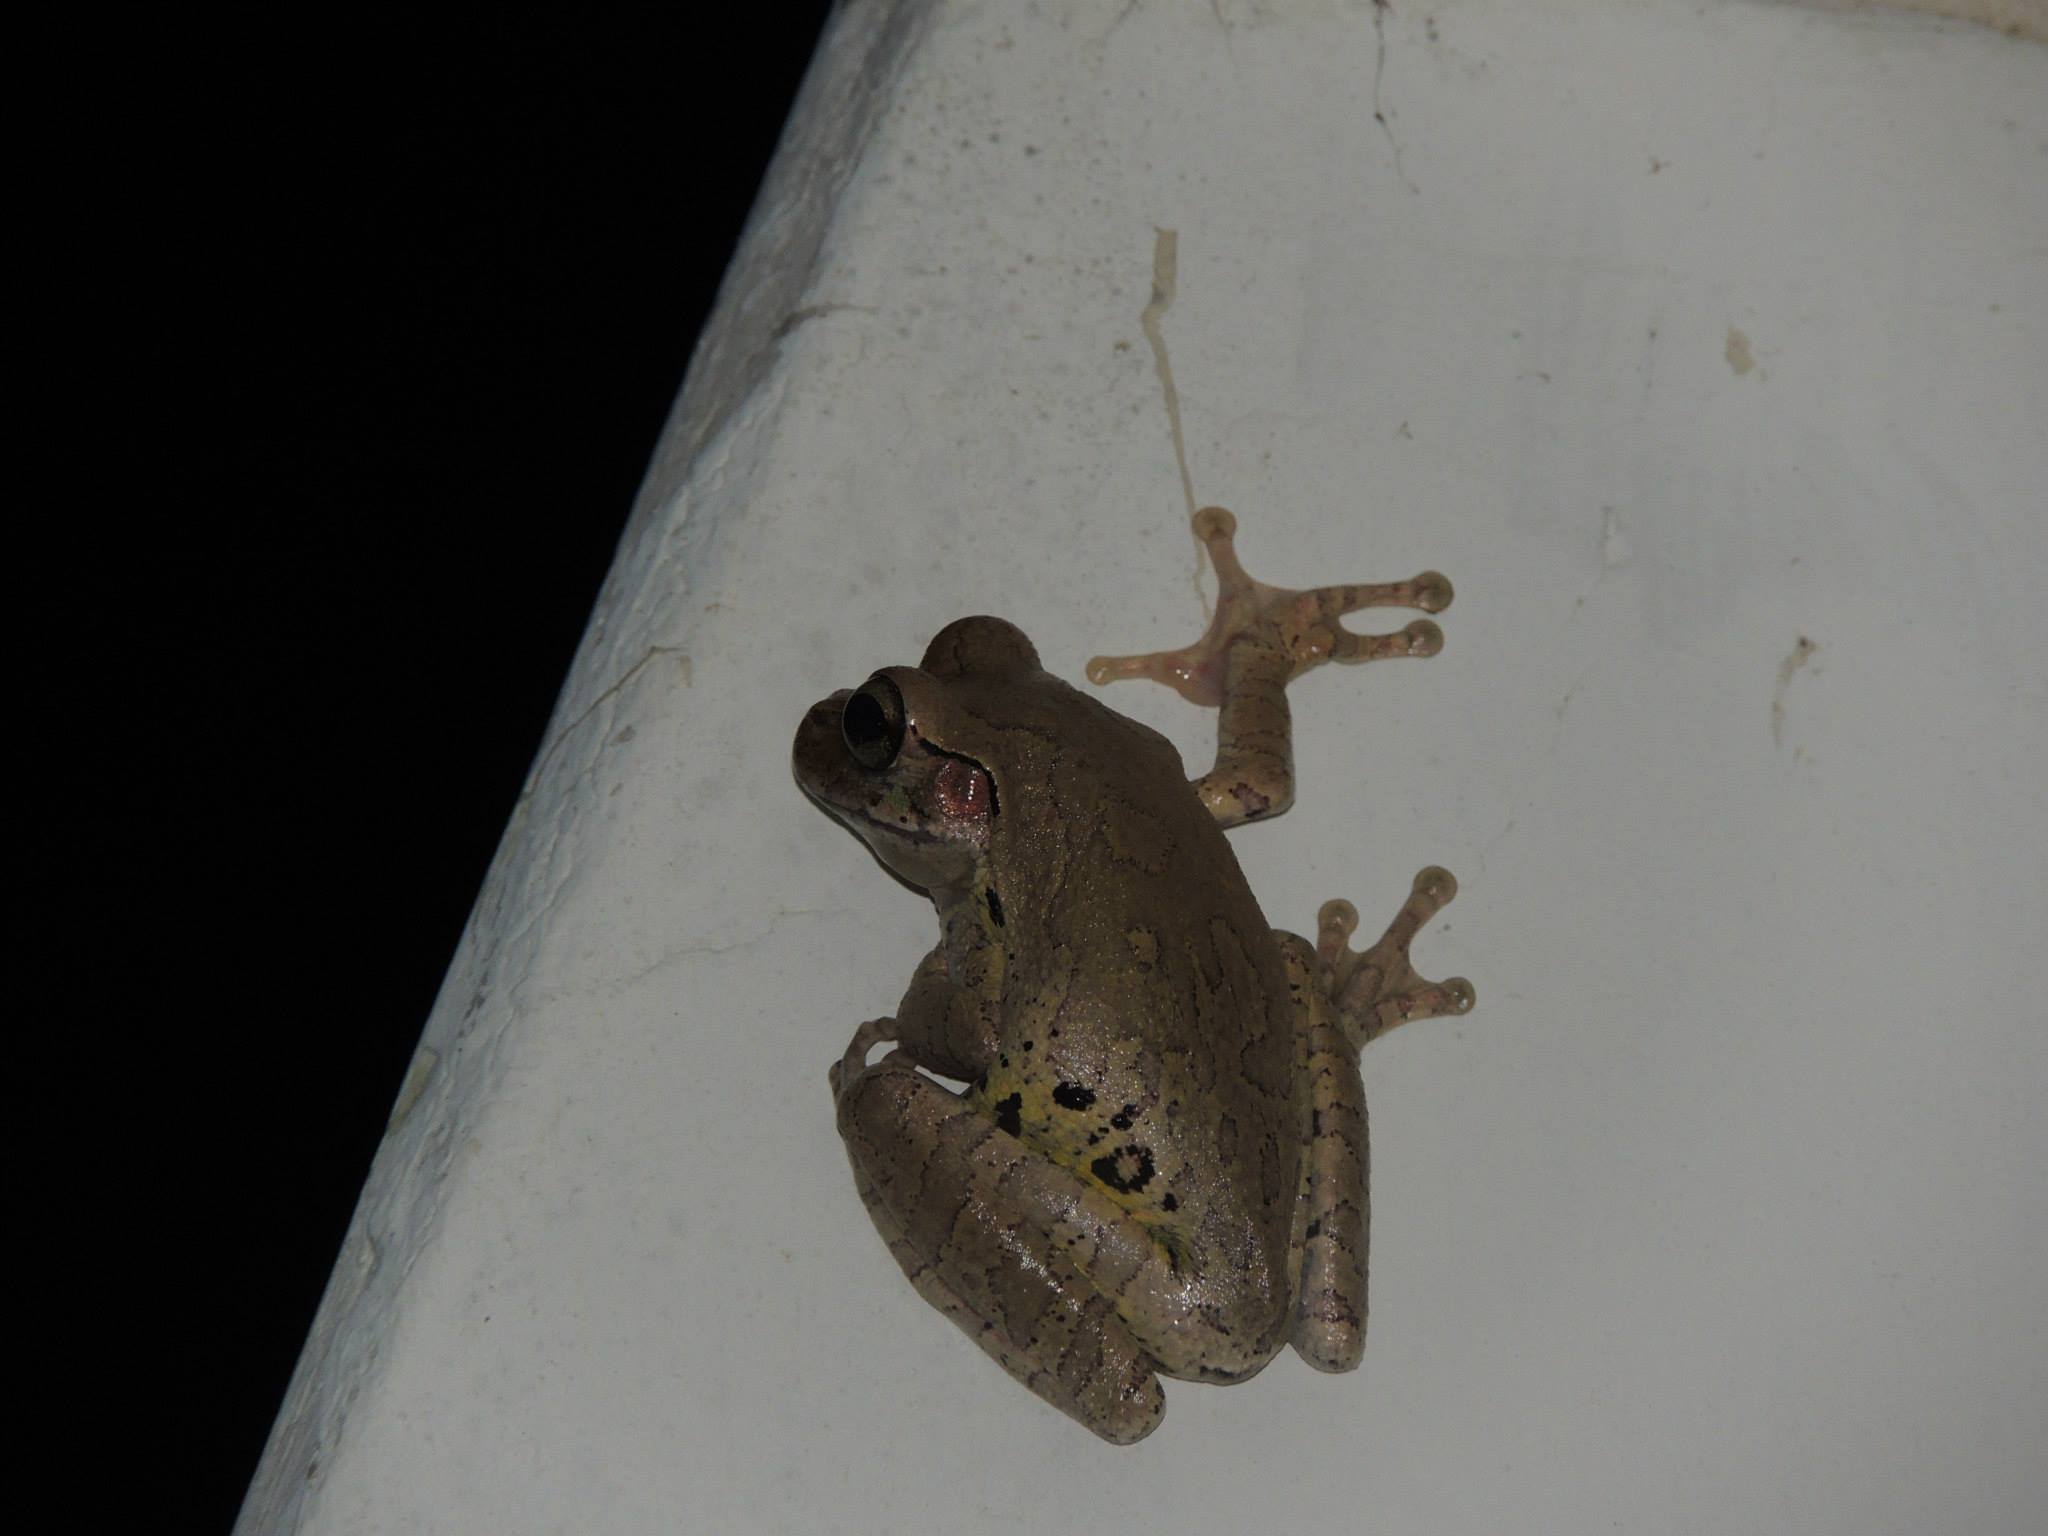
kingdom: Animalia
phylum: Chordata
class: Amphibia
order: Anura
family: Hylidae
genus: Smilisca
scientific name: Smilisca baudinii
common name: Mexican smilisca
